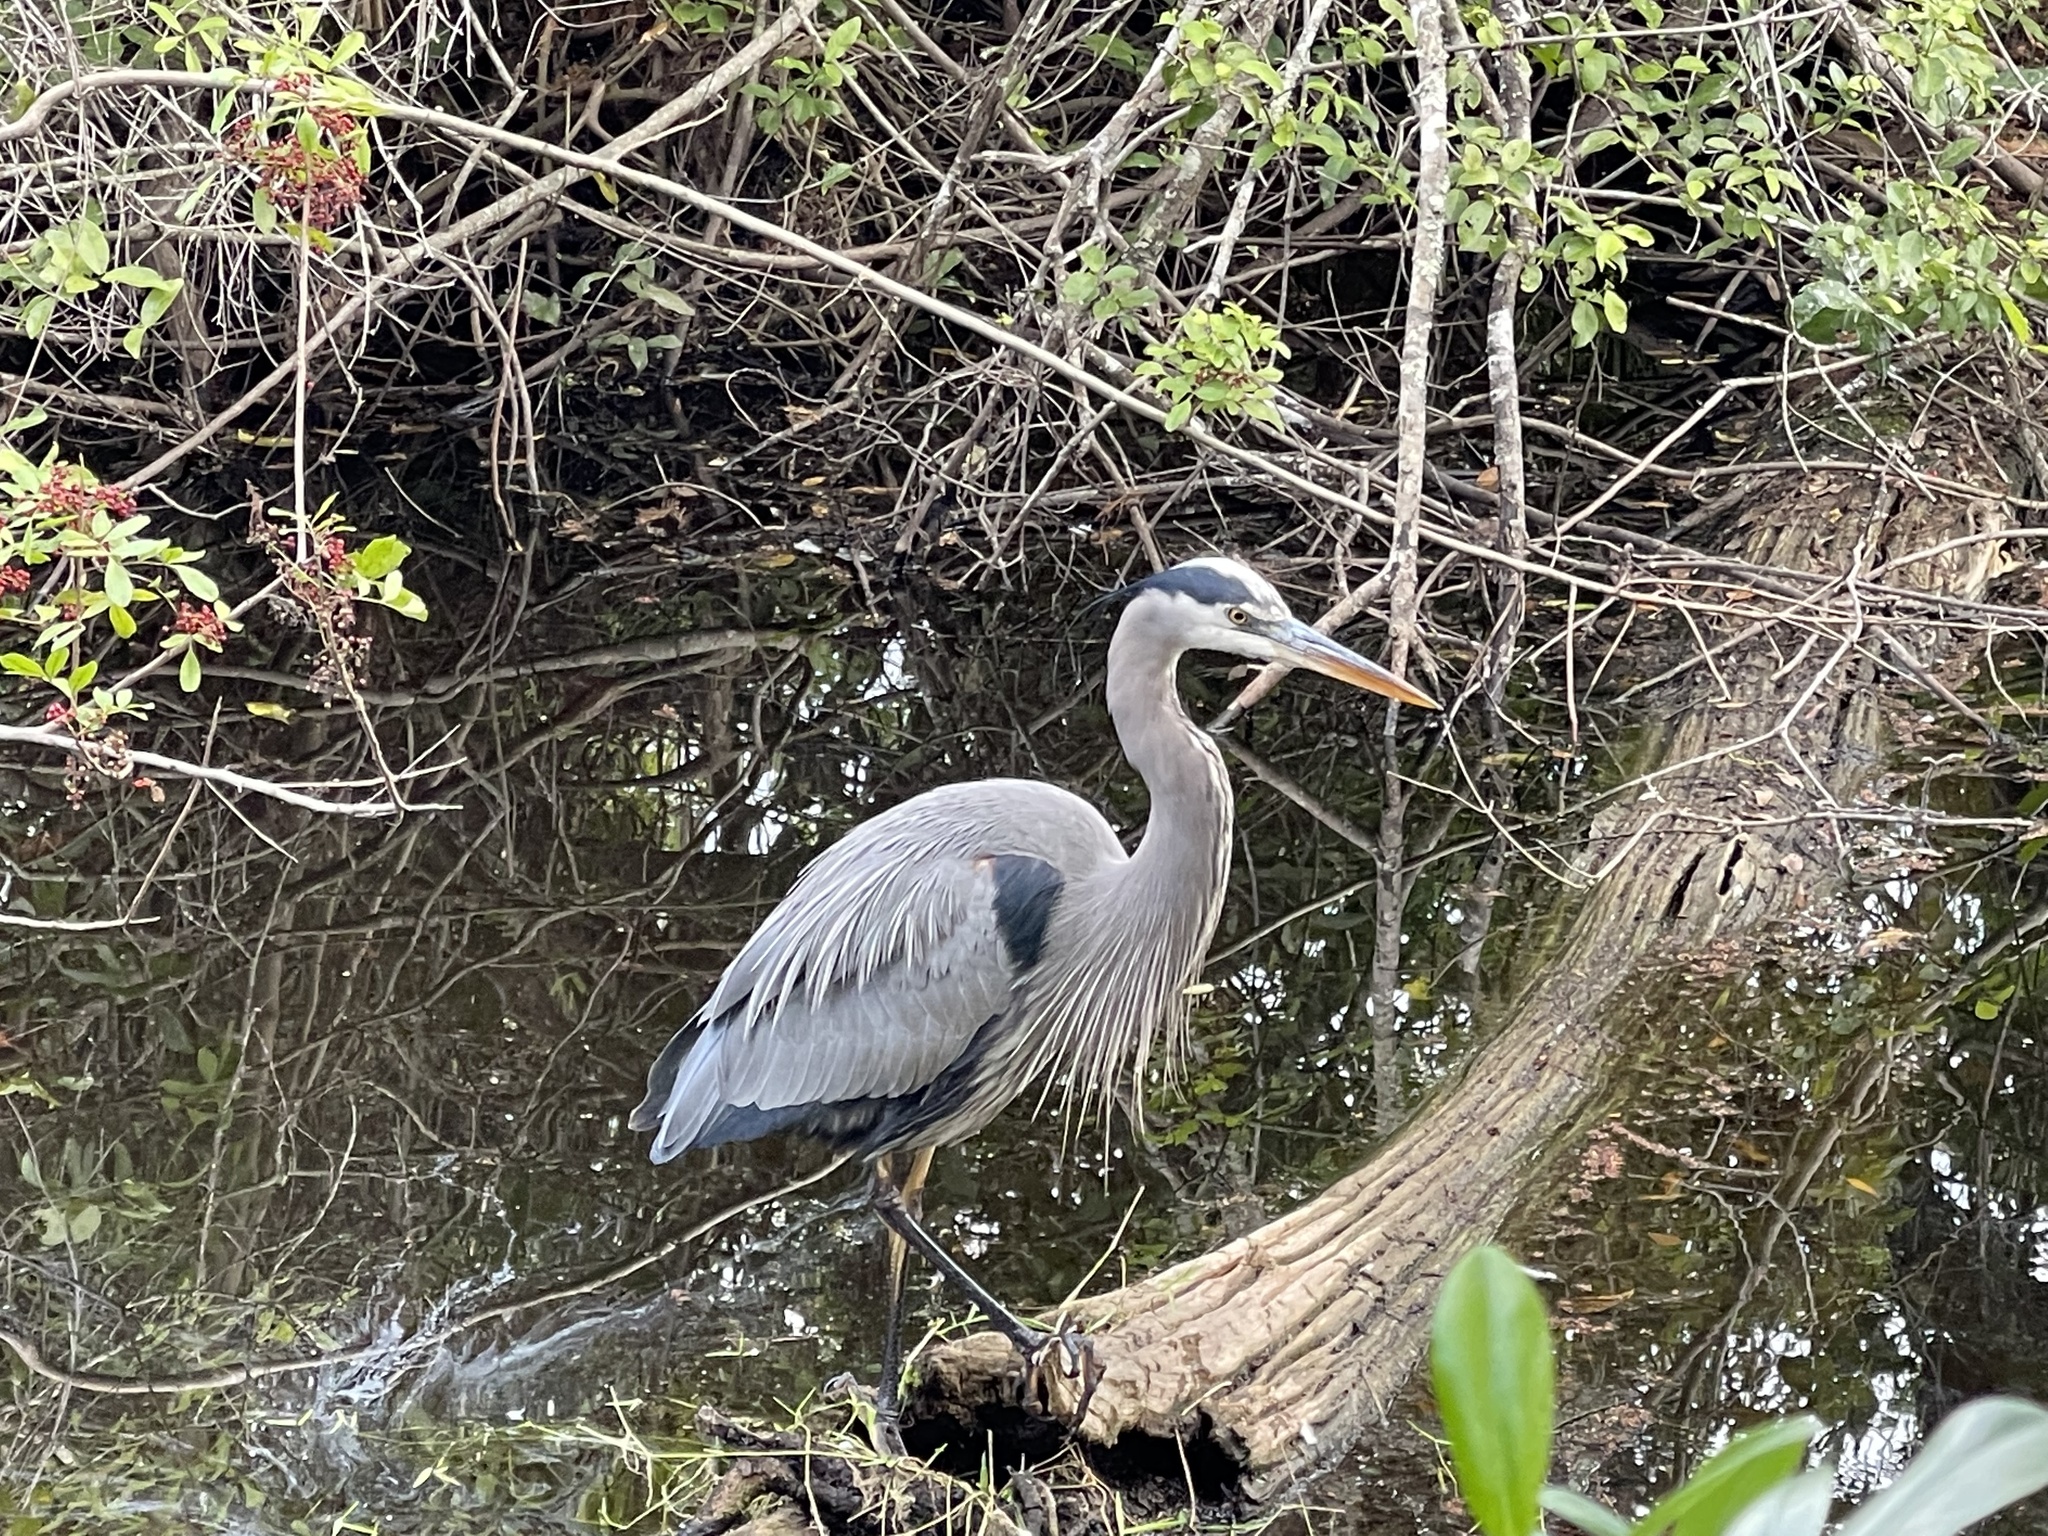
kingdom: Animalia
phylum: Chordata
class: Aves
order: Pelecaniformes
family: Ardeidae
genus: Ardea
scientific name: Ardea herodias
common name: Great blue heron
